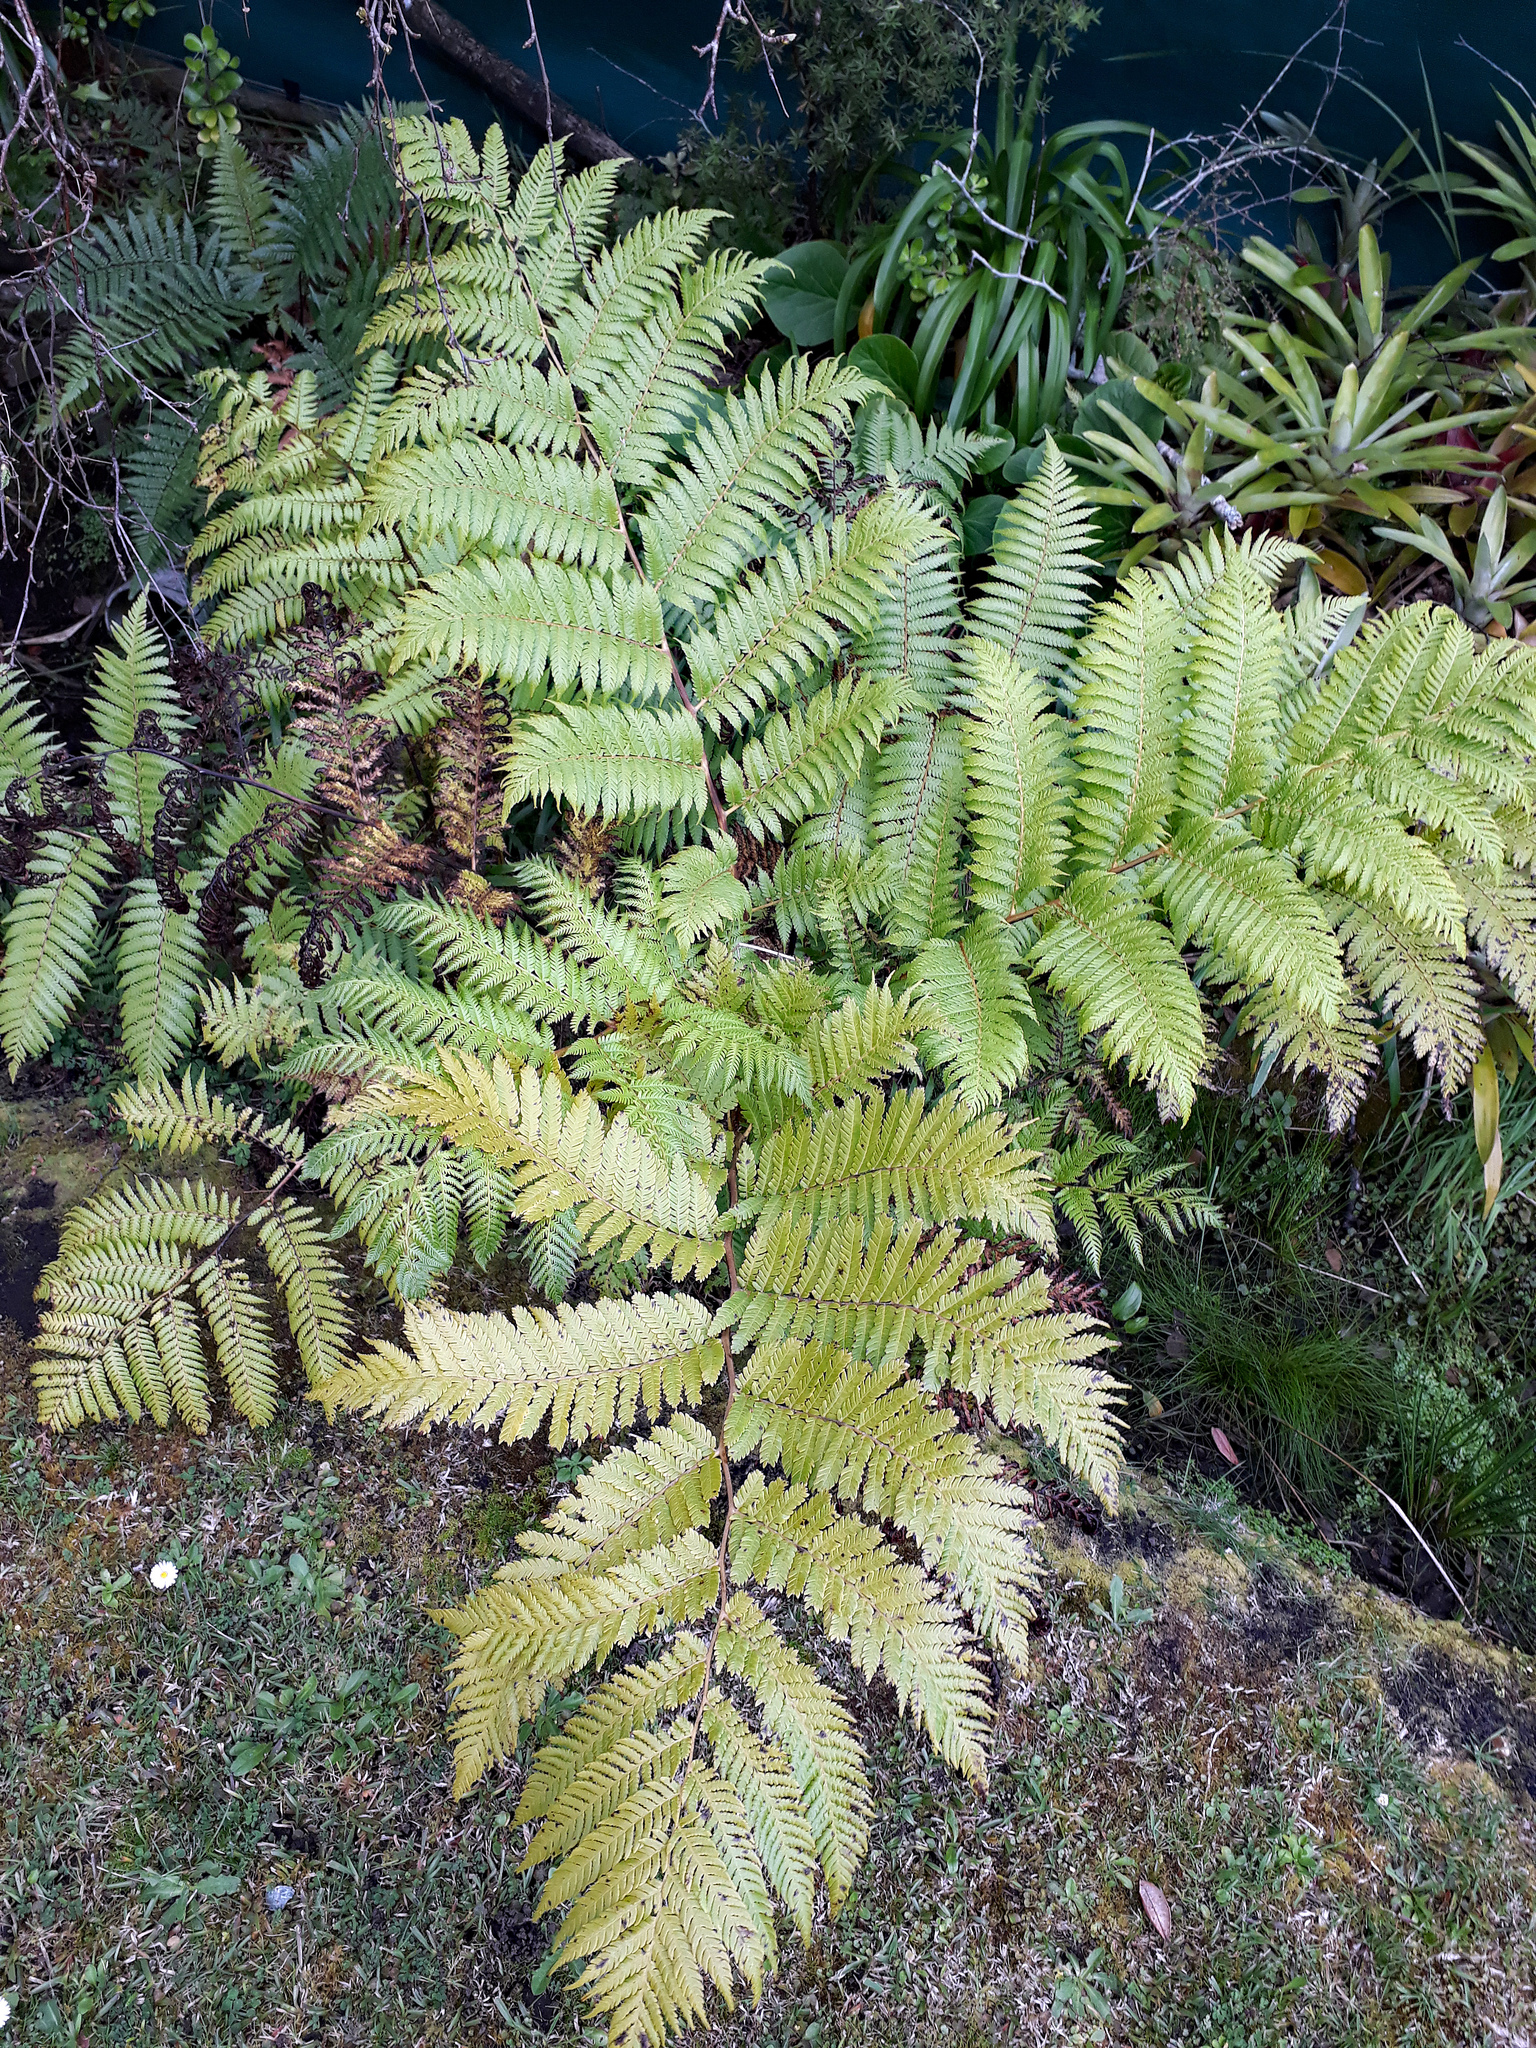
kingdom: Plantae
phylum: Tracheophyta
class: Polypodiopsida
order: Cyatheales
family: Cyatheaceae
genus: Sphaeropteris
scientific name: Sphaeropteris cooperi
